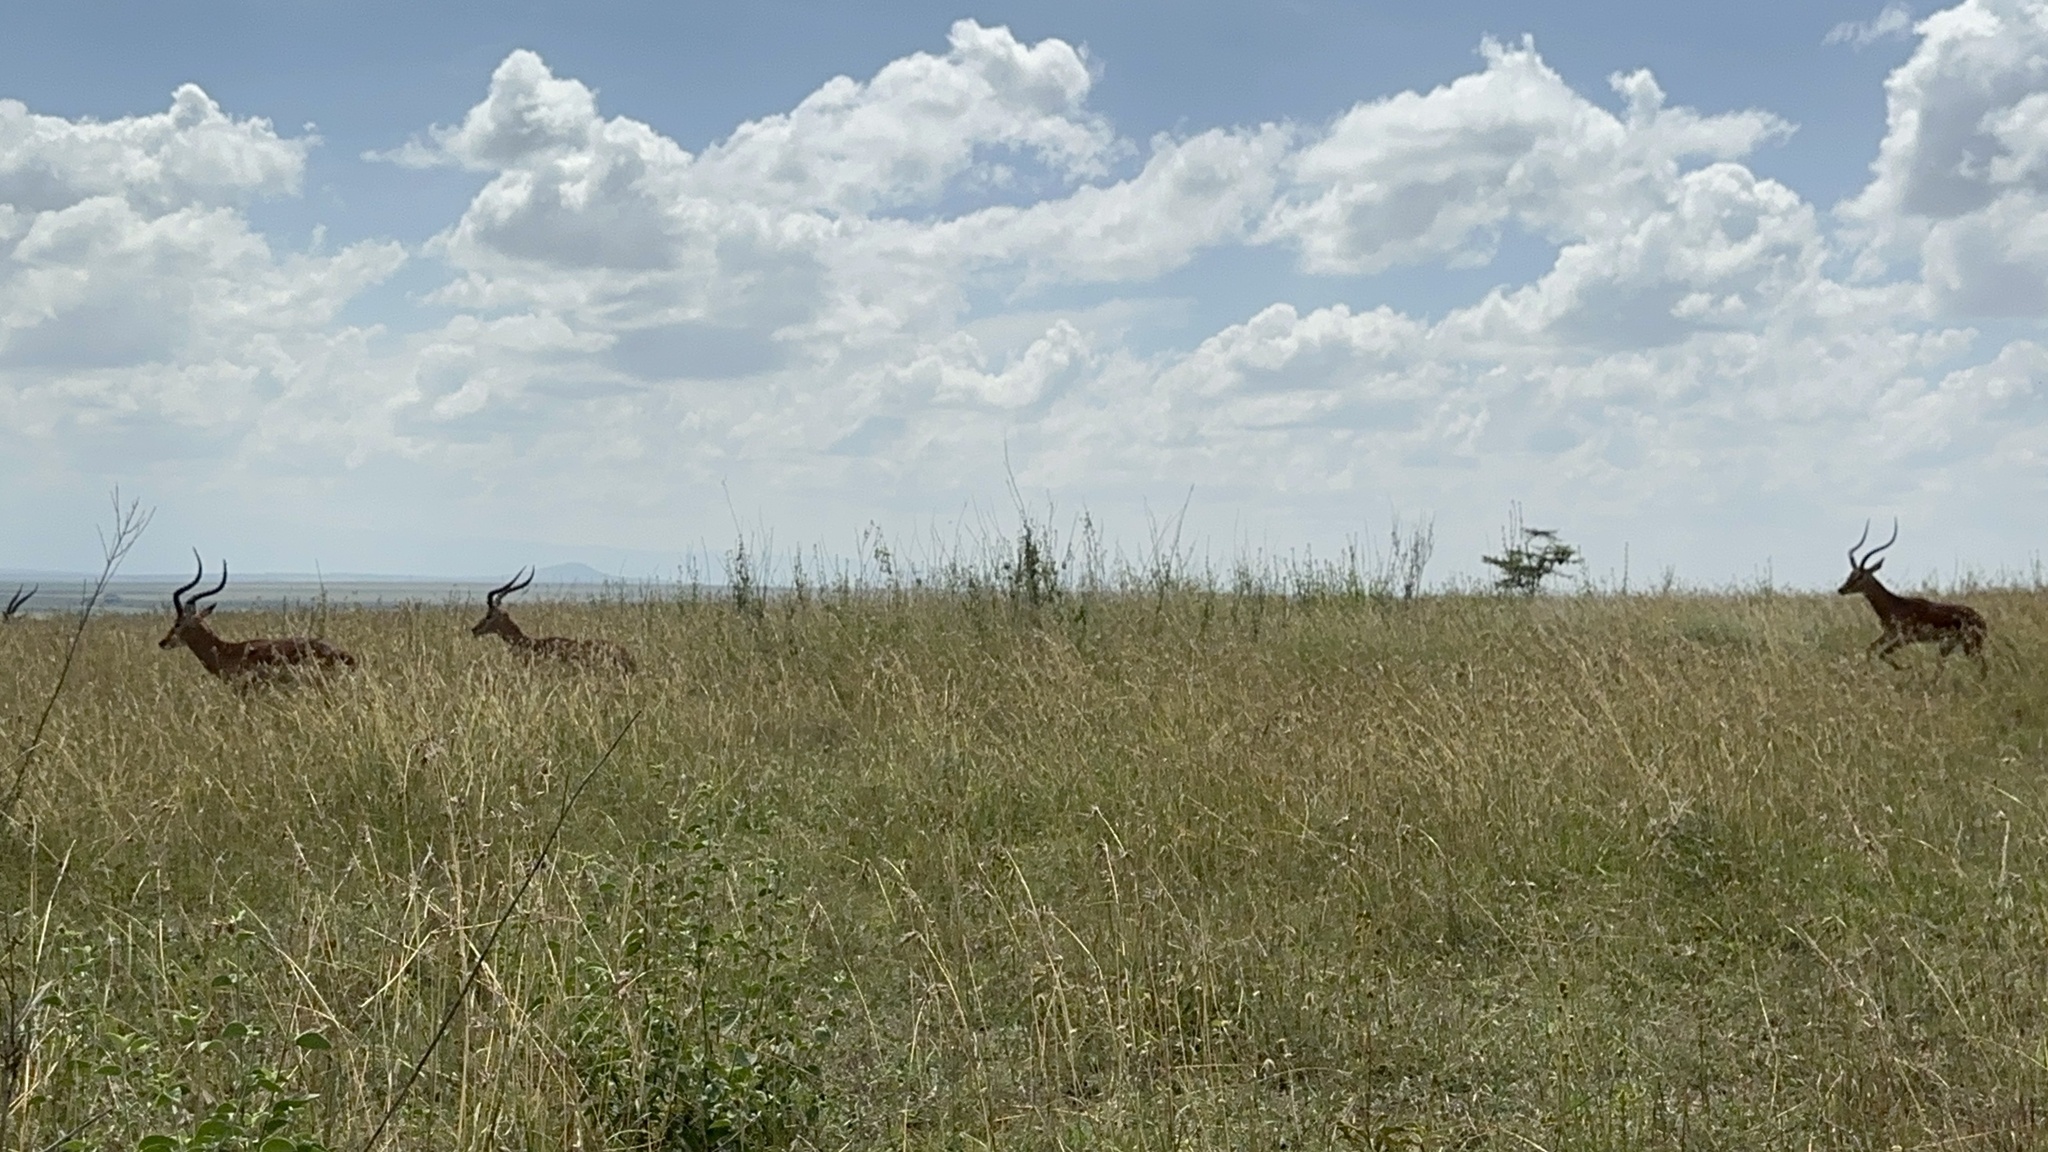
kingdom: Animalia
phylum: Chordata
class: Mammalia
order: Artiodactyla
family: Bovidae
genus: Aepyceros
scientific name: Aepyceros melampus
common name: Impala
